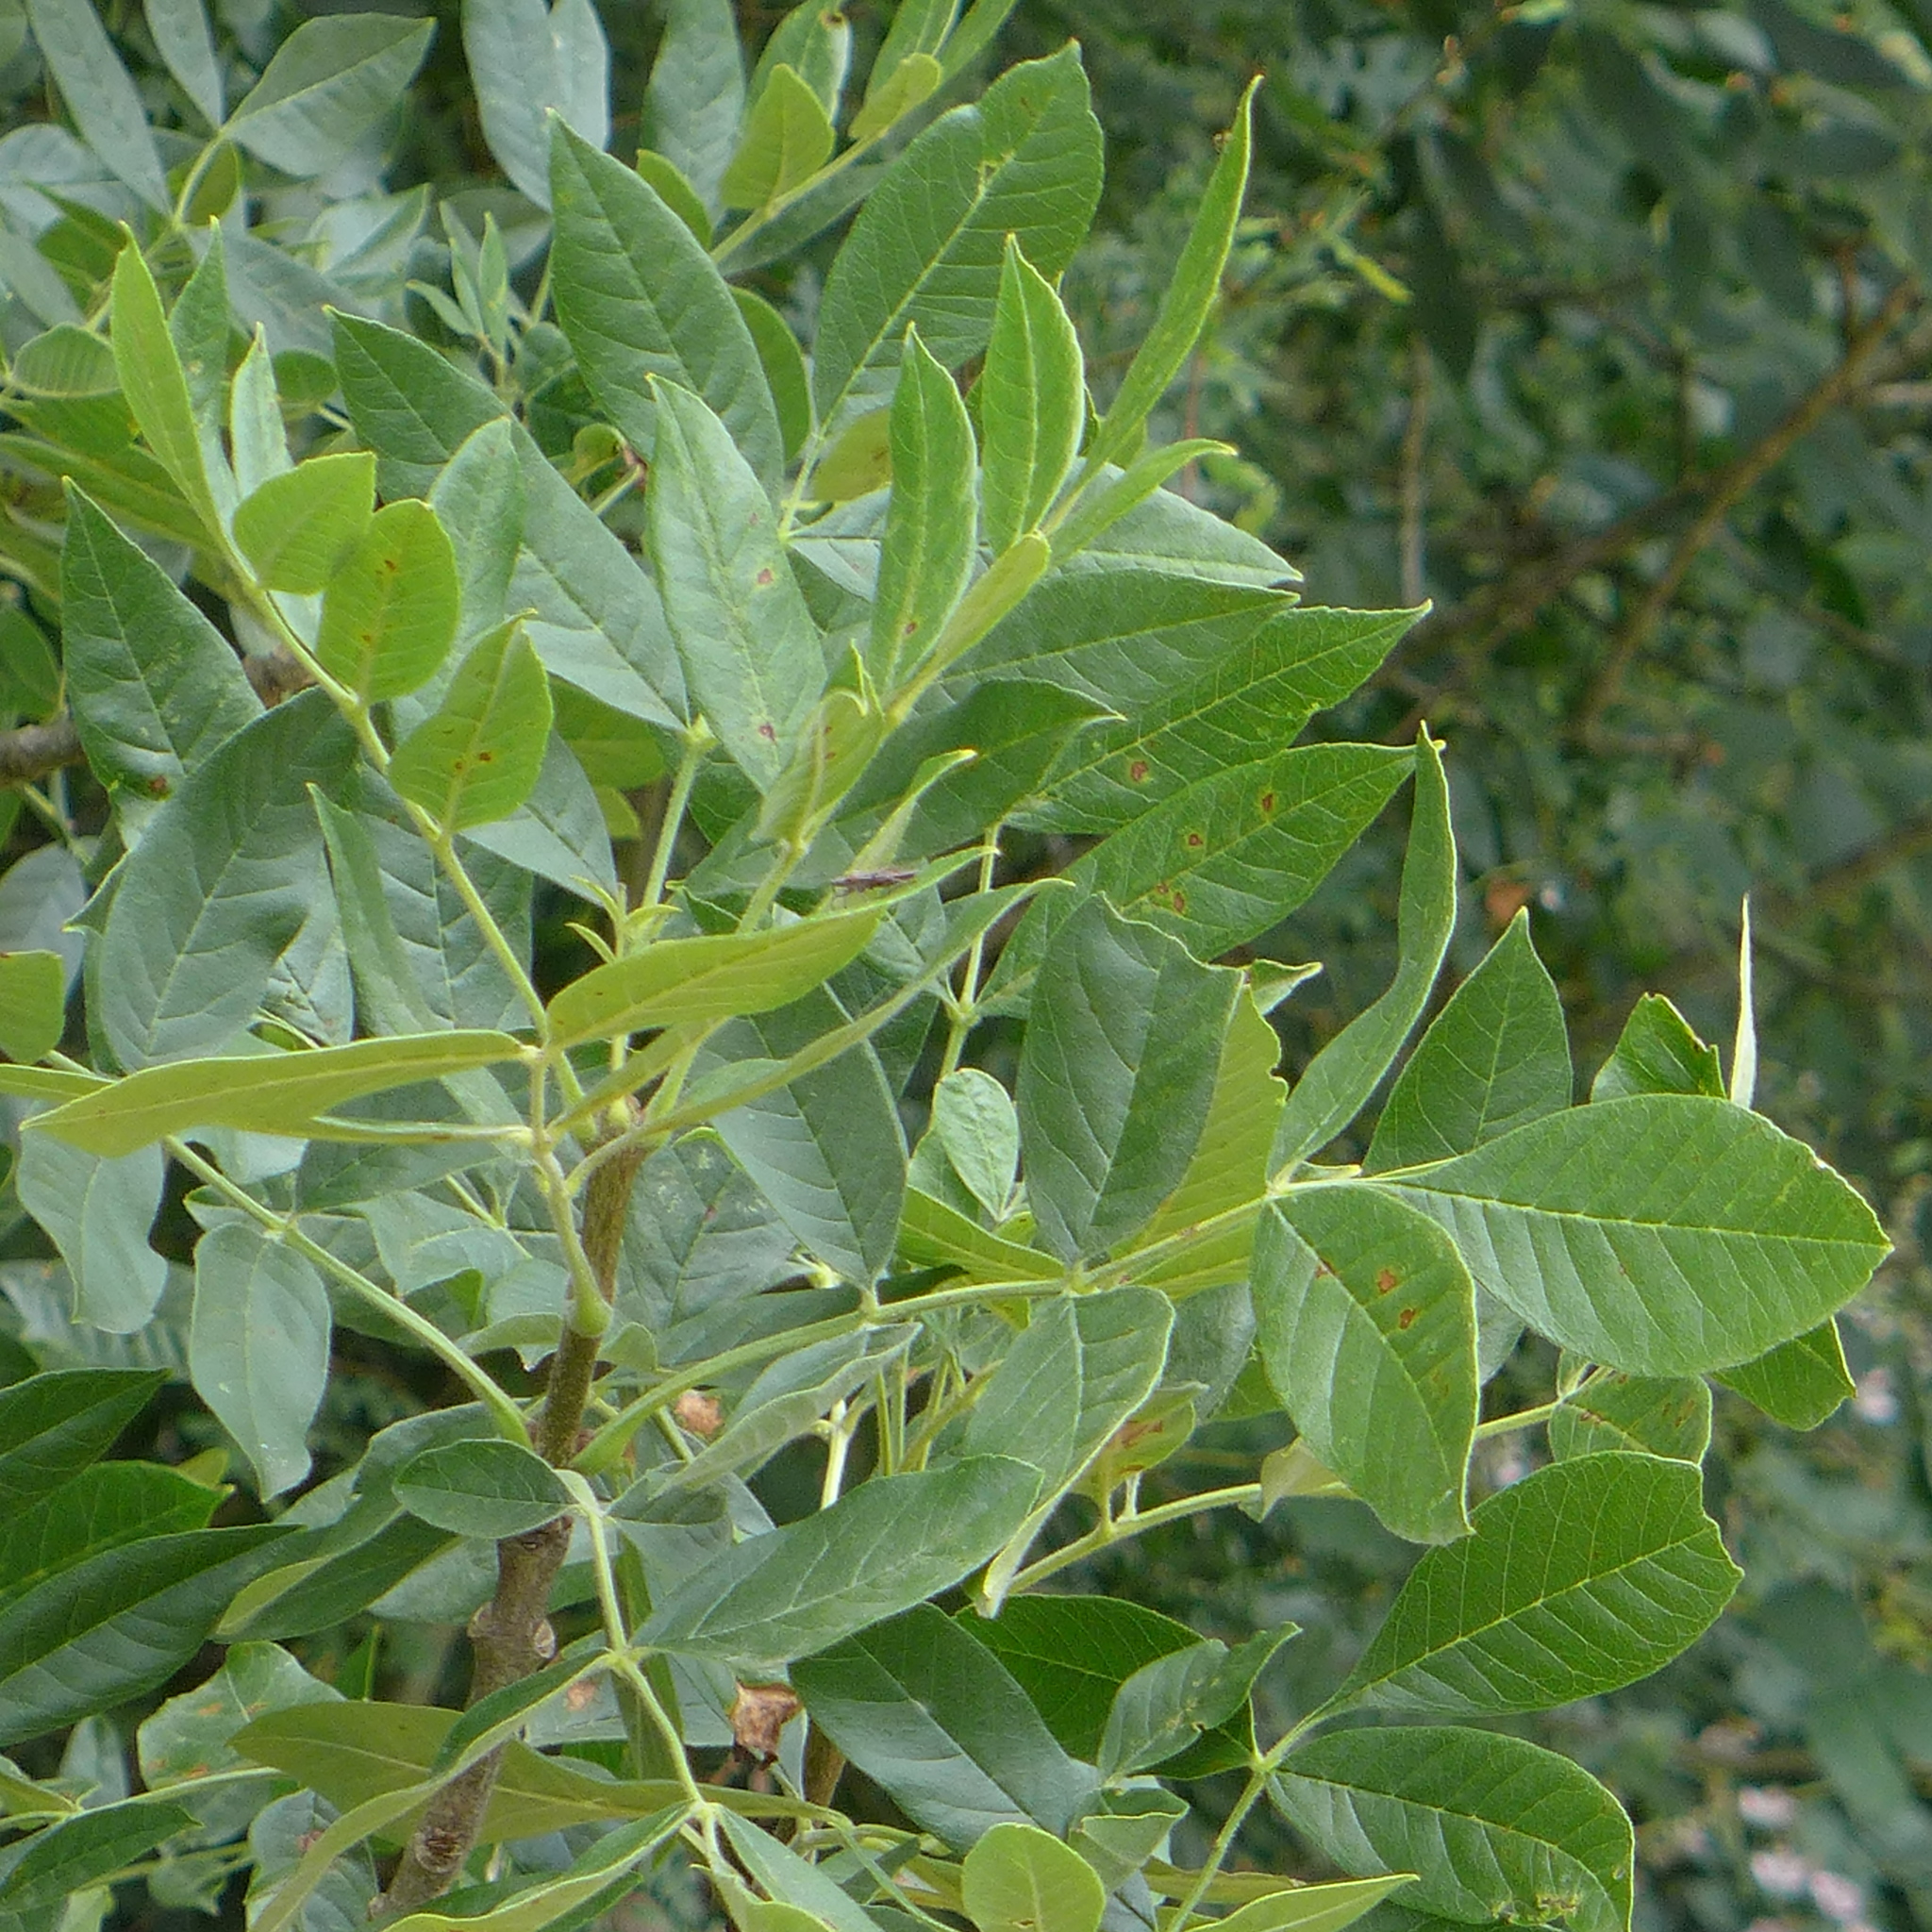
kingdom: Plantae
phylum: Tracheophyta
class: Magnoliopsida
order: Lamiales
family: Oleaceae
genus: Fraxinus
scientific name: Fraxinus latifolia
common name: Oregon ash
